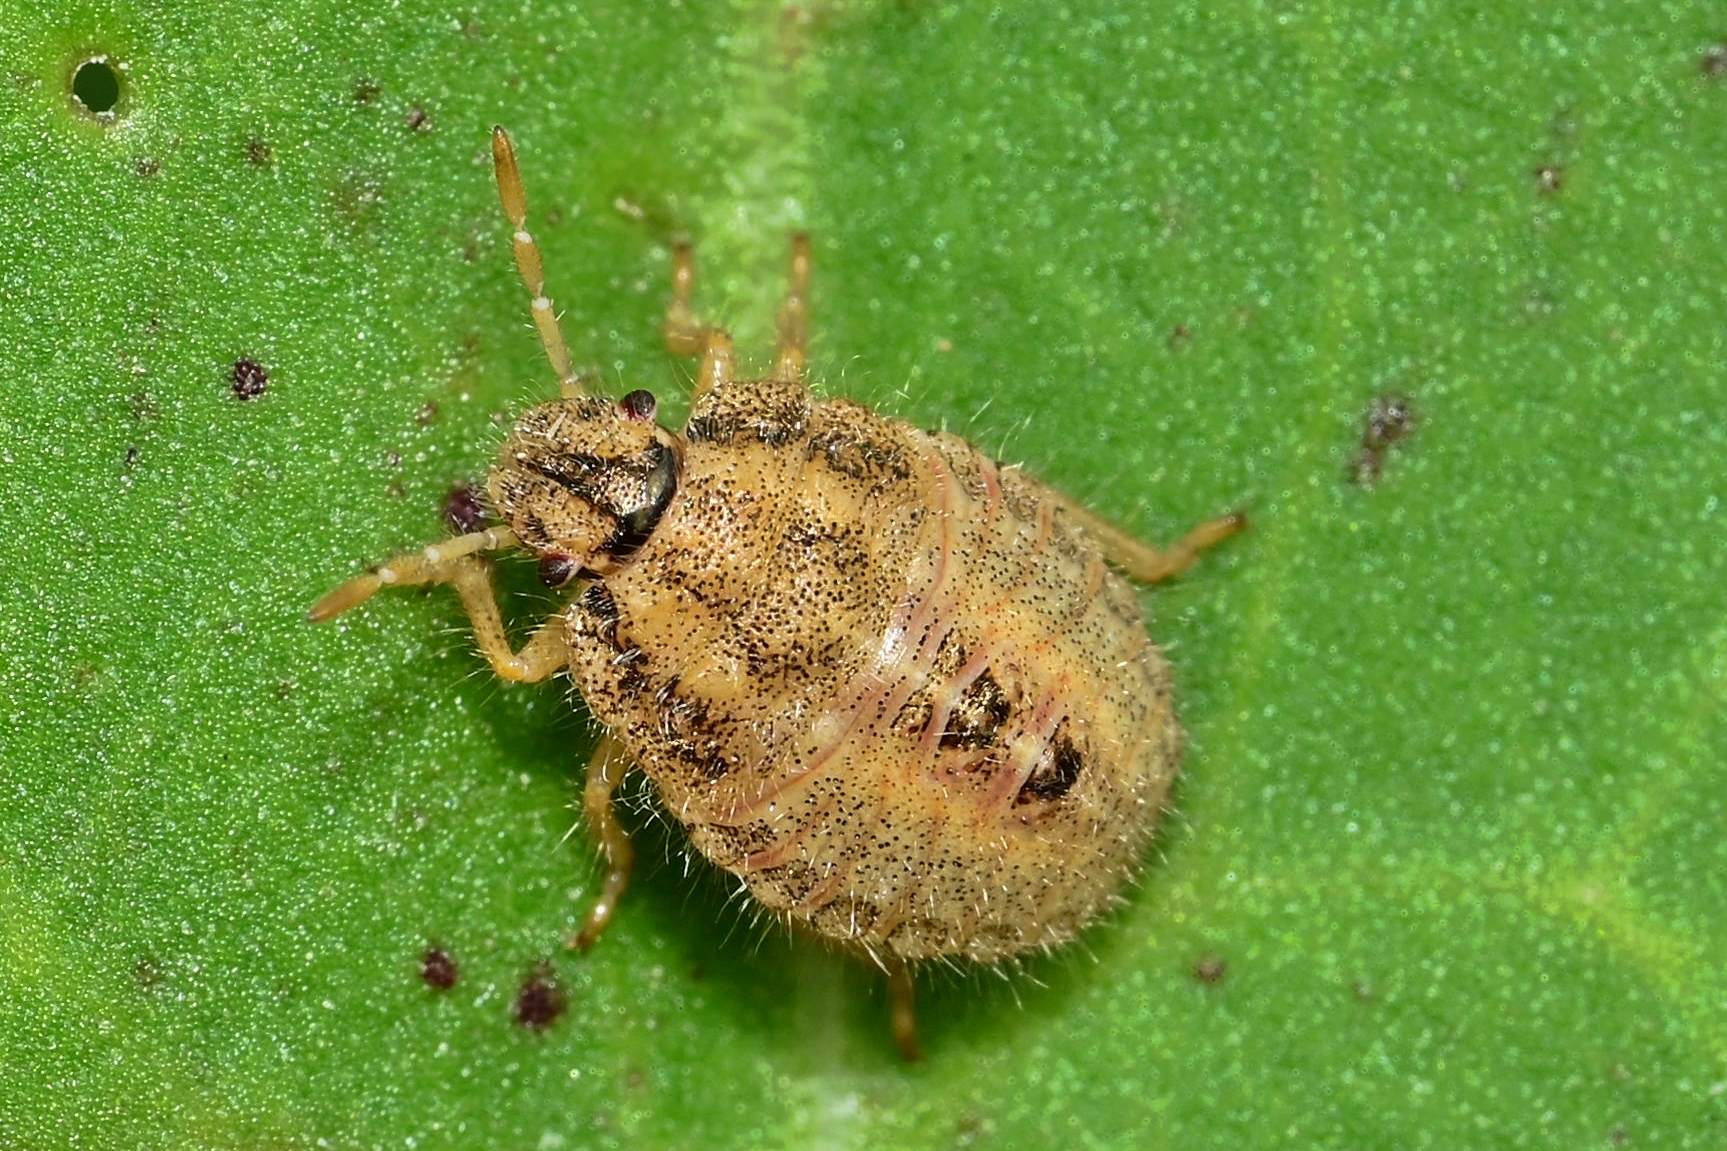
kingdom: Animalia
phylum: Arthropoda
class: Insecta
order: Hemiptera
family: Pentatomidae
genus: Dolycoris
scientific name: Dolycoris baccarum
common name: Sloe bug
